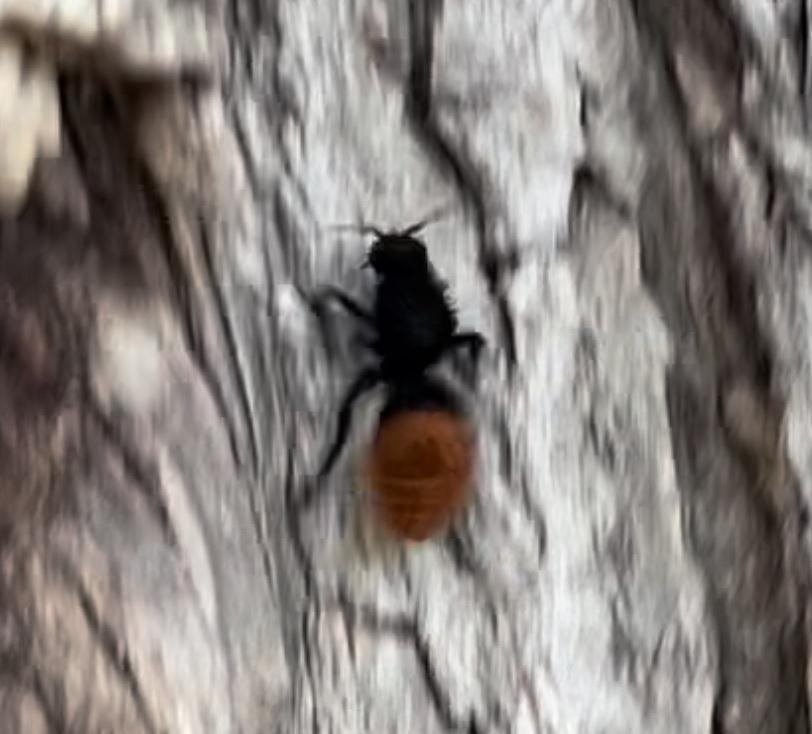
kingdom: Animalia
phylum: Arthropoda
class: Insecta
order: Hymenoptera
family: Mutillidae
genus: Dasymutilla
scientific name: Dasymutilla
